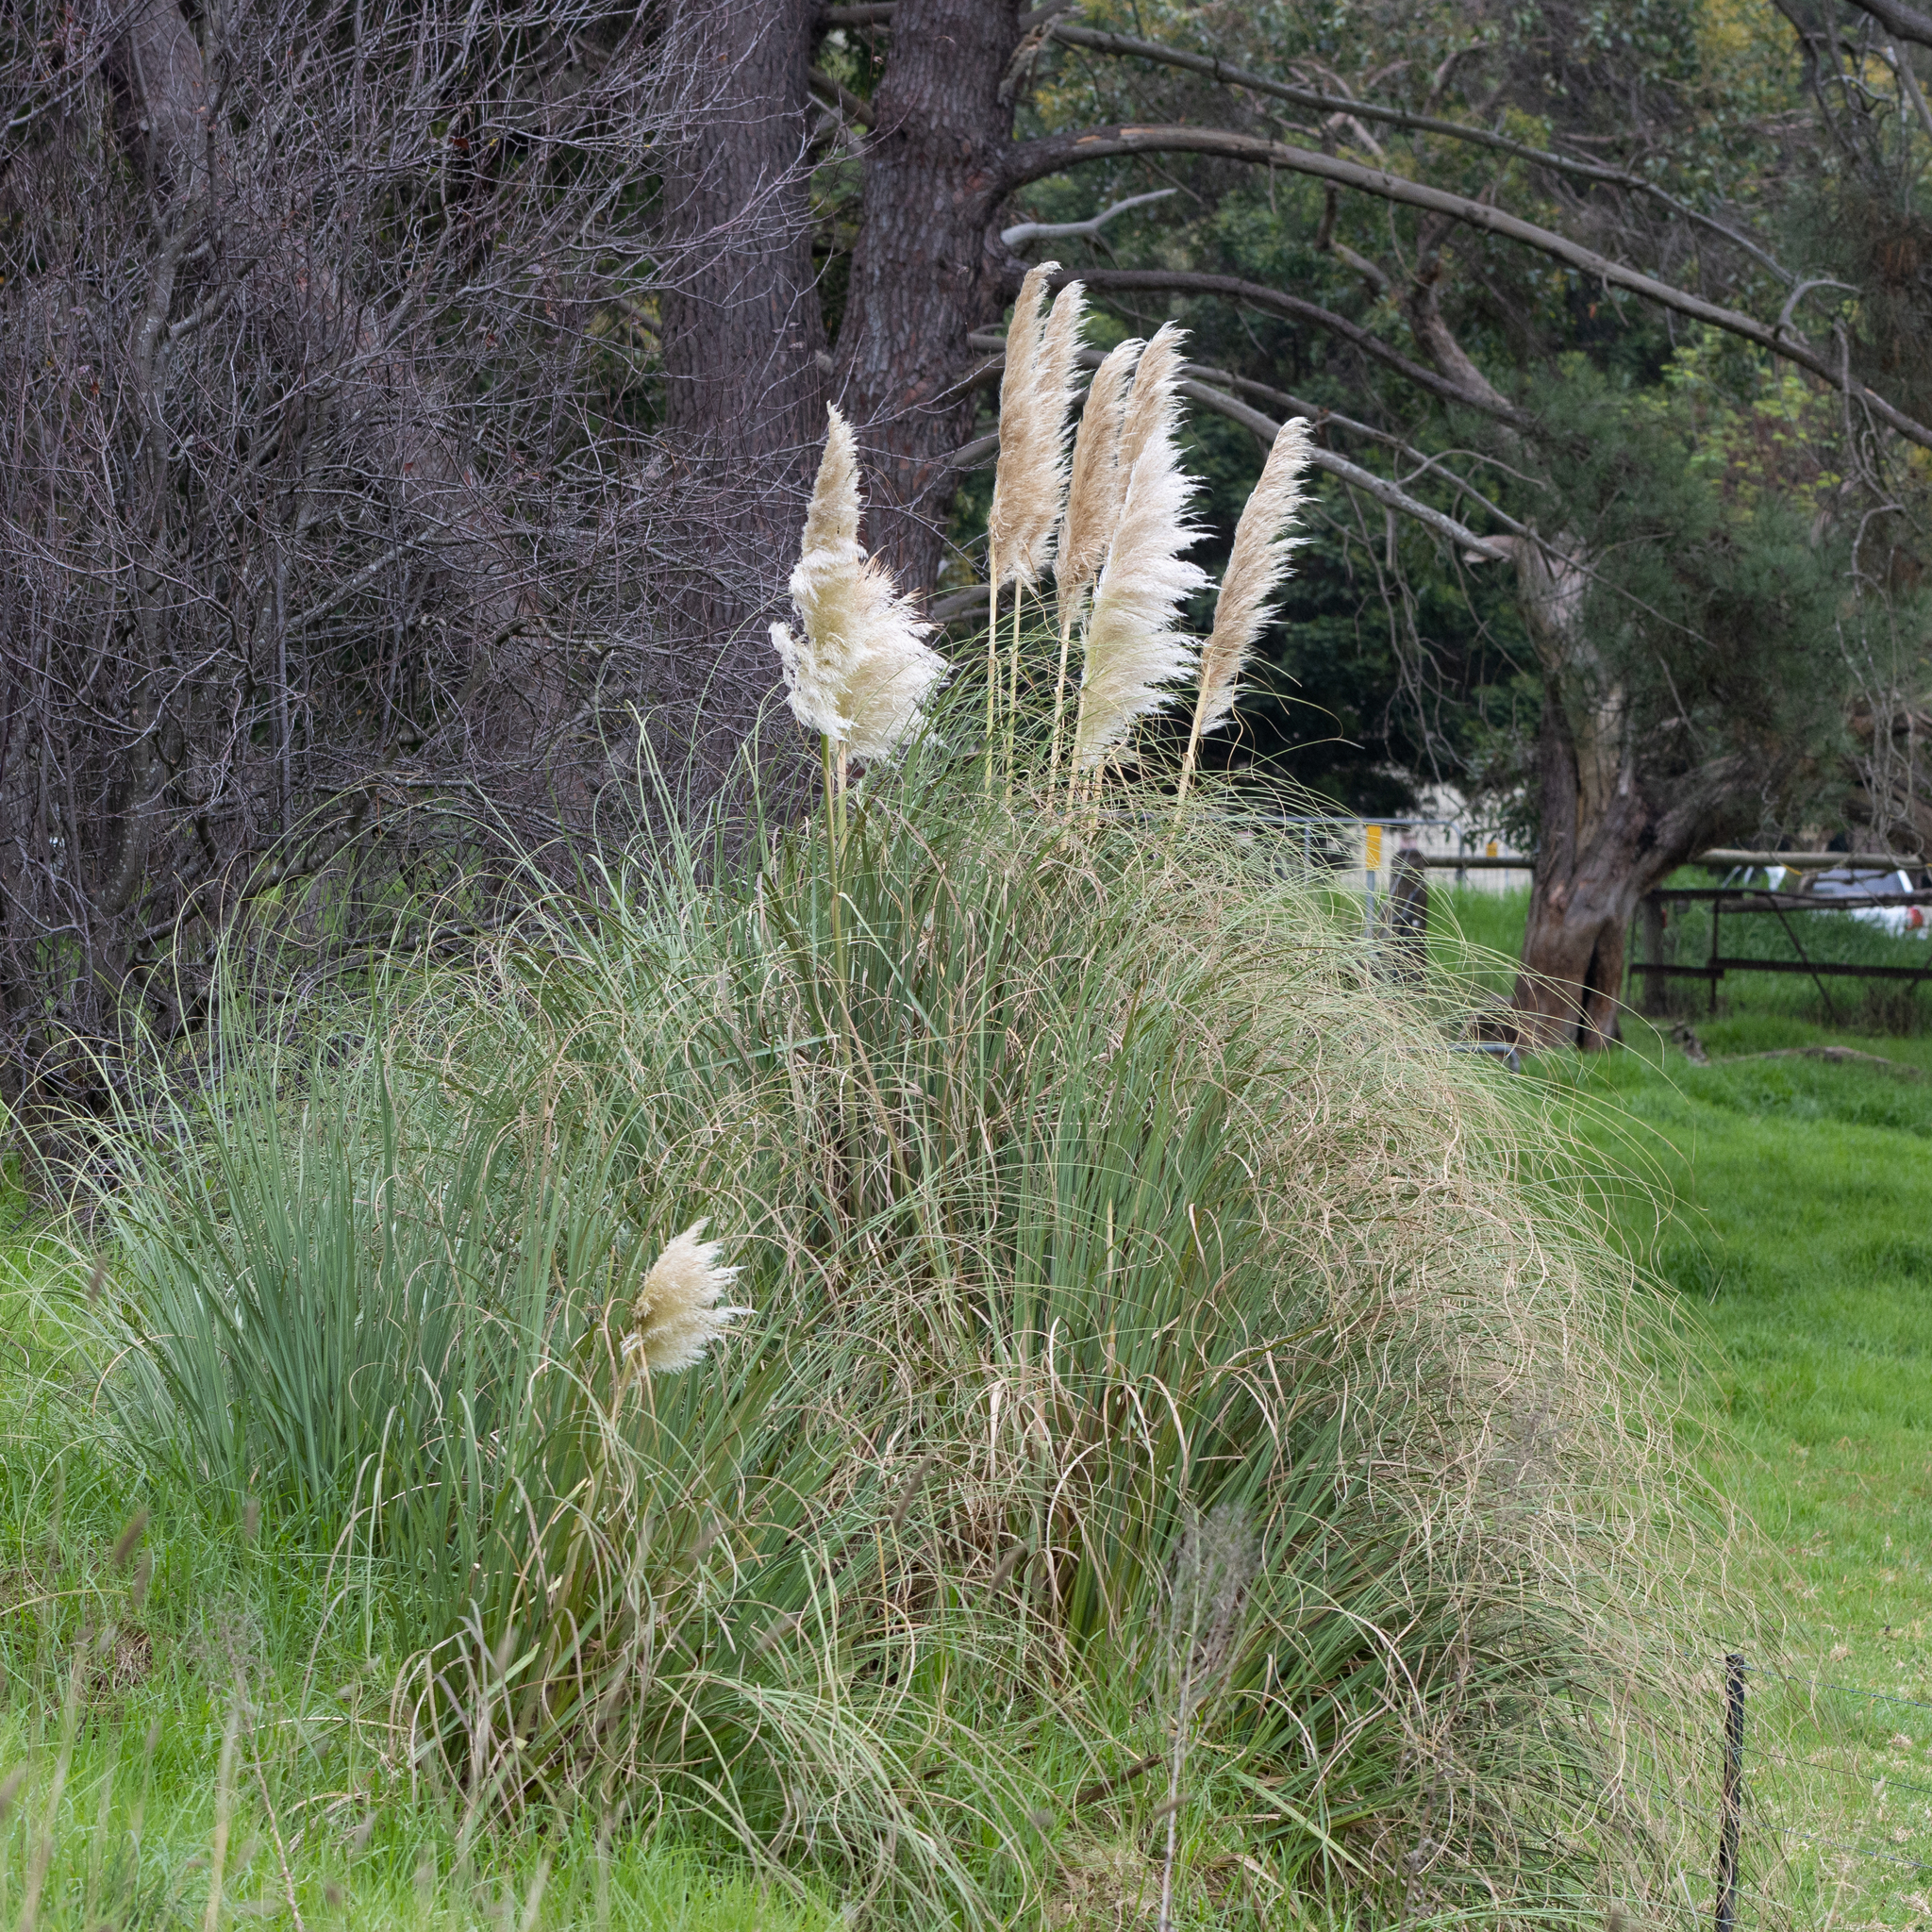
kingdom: Plantae
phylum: Tracheophyta
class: Liliopsida
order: Poales
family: Poaceae
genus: Cortaderia
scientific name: Cortaderia selloana
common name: Uruguayan pampas grass
